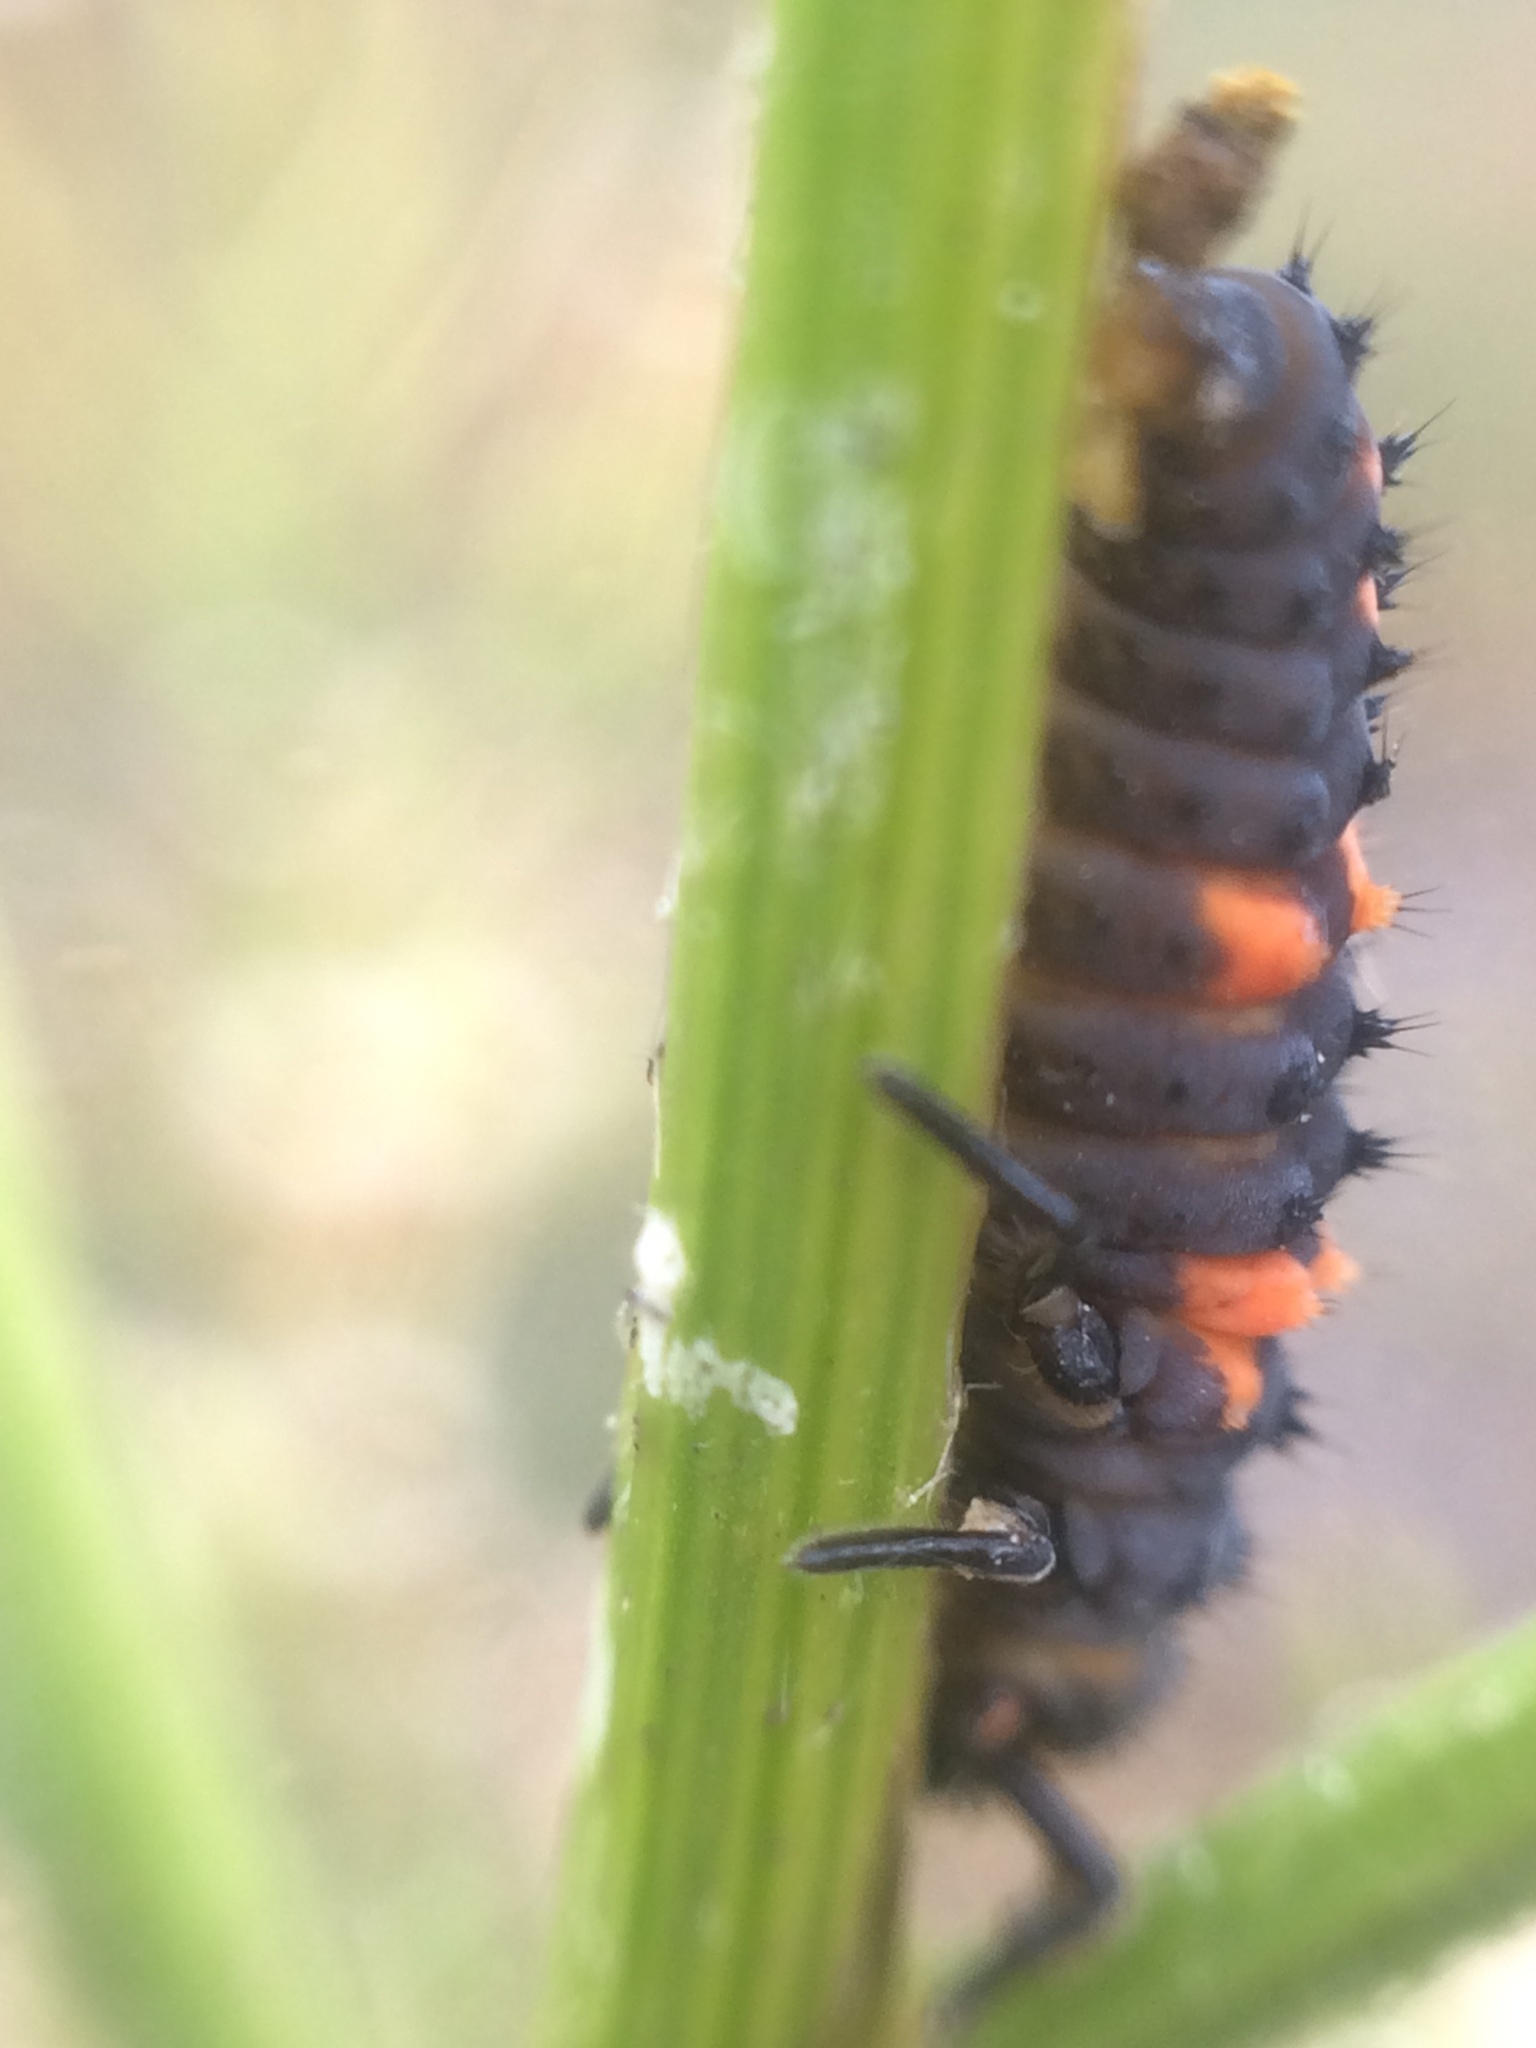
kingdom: Animalia
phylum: Arthropoda
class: Insecta
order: Coleoptera
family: Coccinellidae
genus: Coccinella
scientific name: Coccinella septempunctata
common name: Sevenspotted lady beetle
